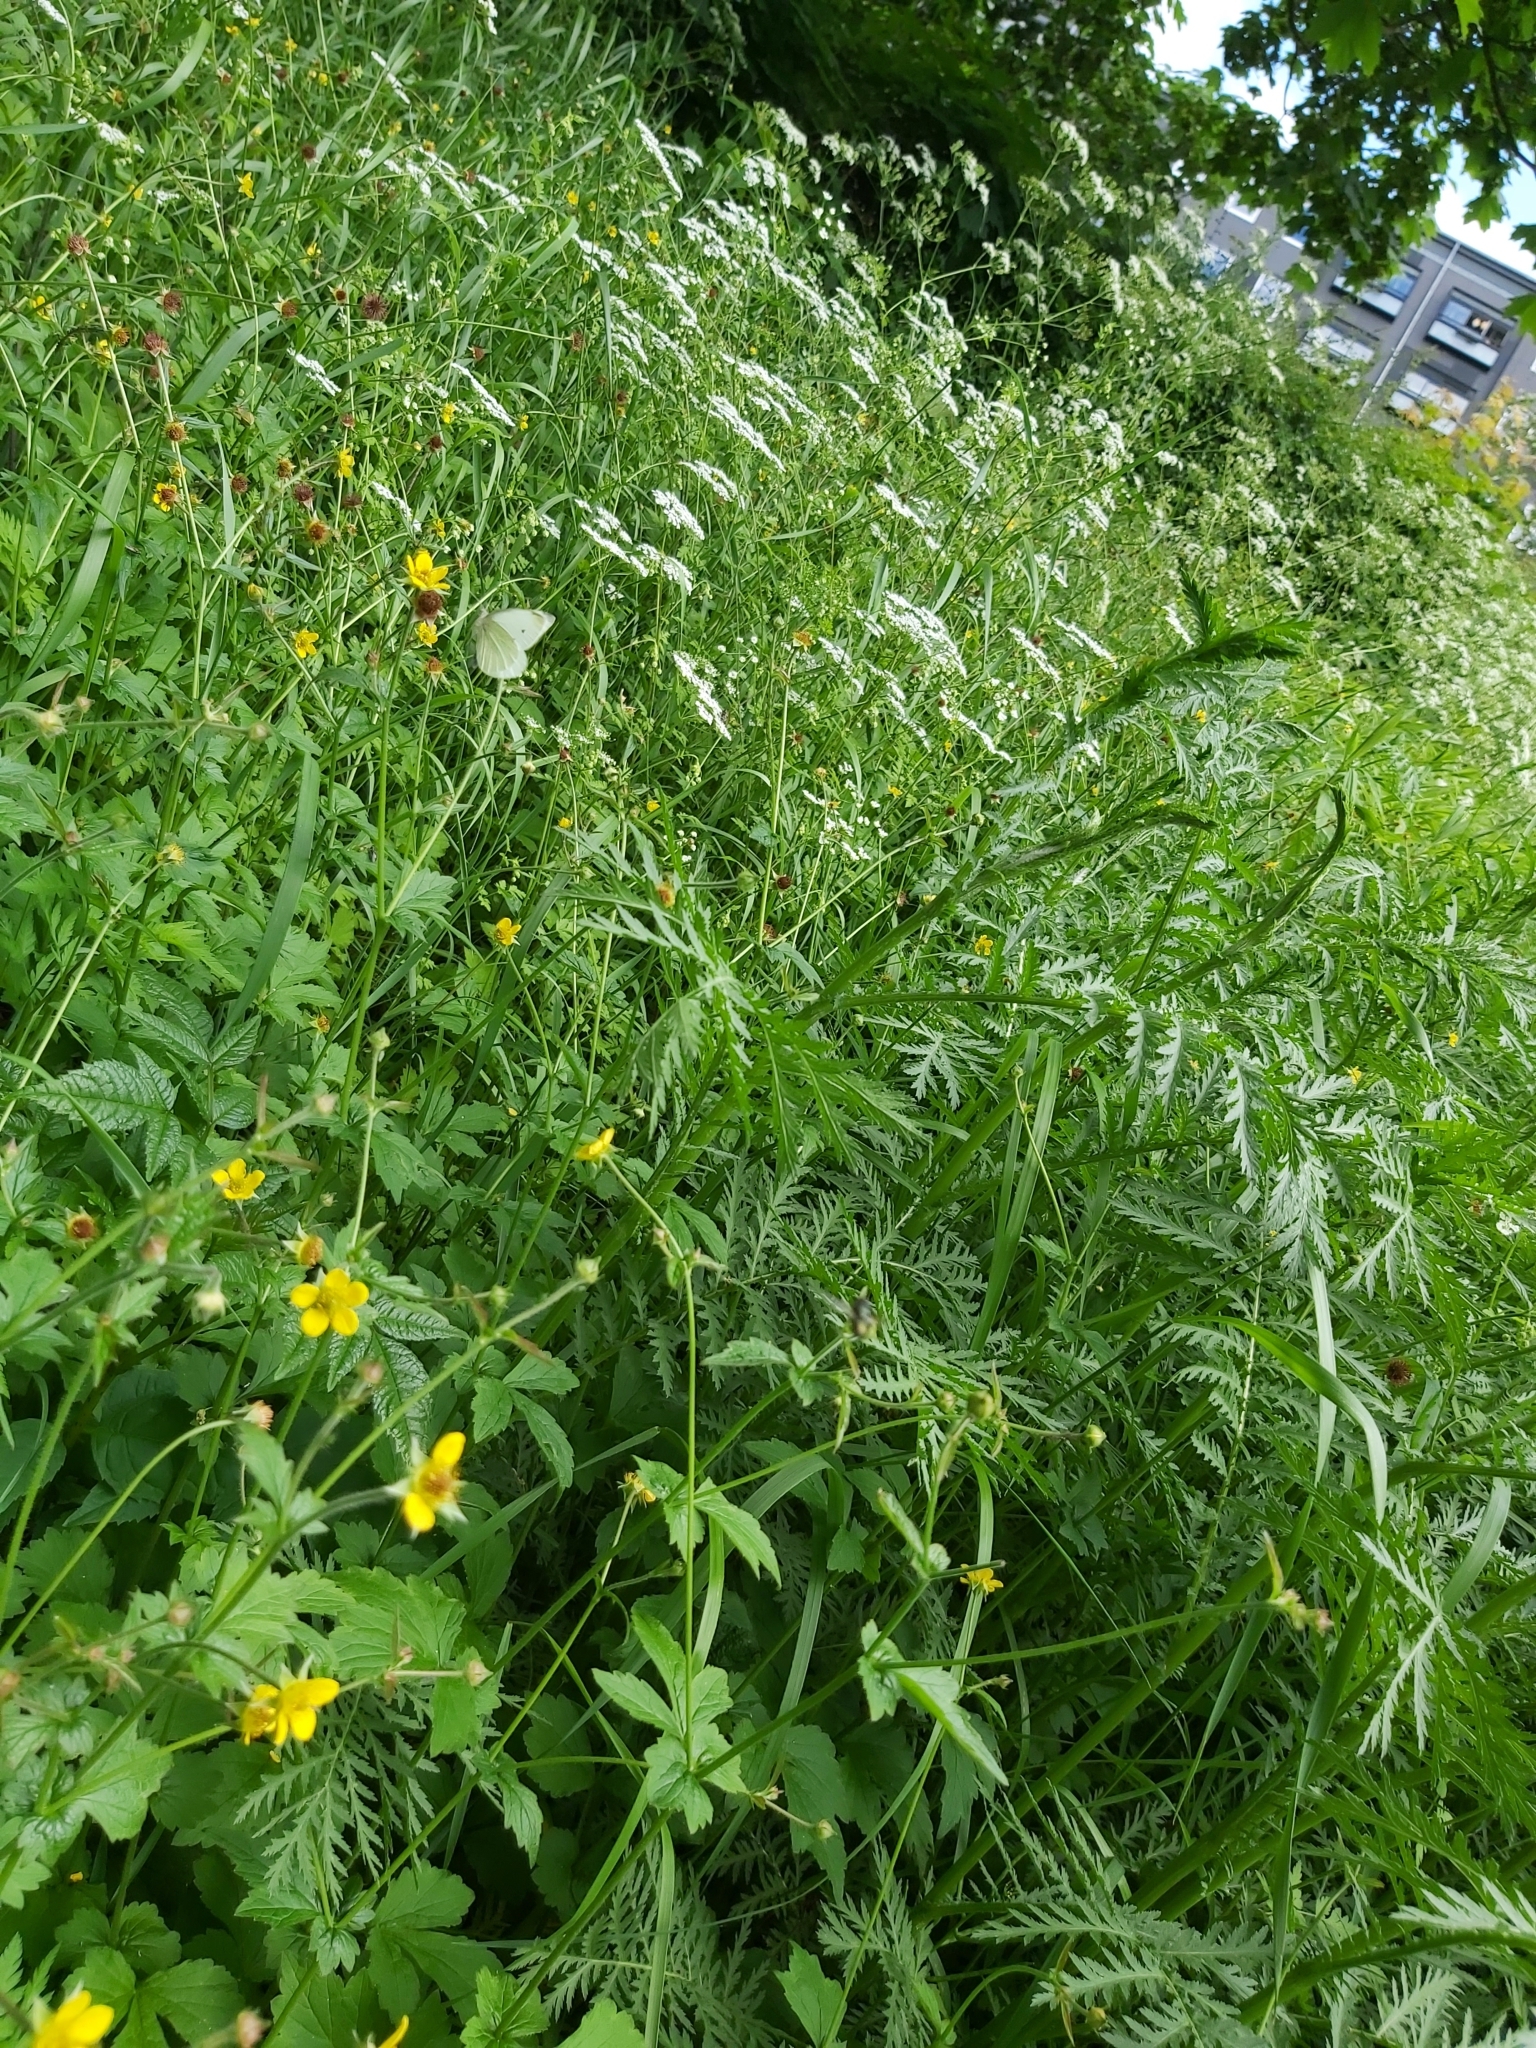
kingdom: Animalia
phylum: Arthropoda
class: Insecta
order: Lepidoptera
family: Pieridae
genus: Pieris
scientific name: Pieris rapae
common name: Small white
